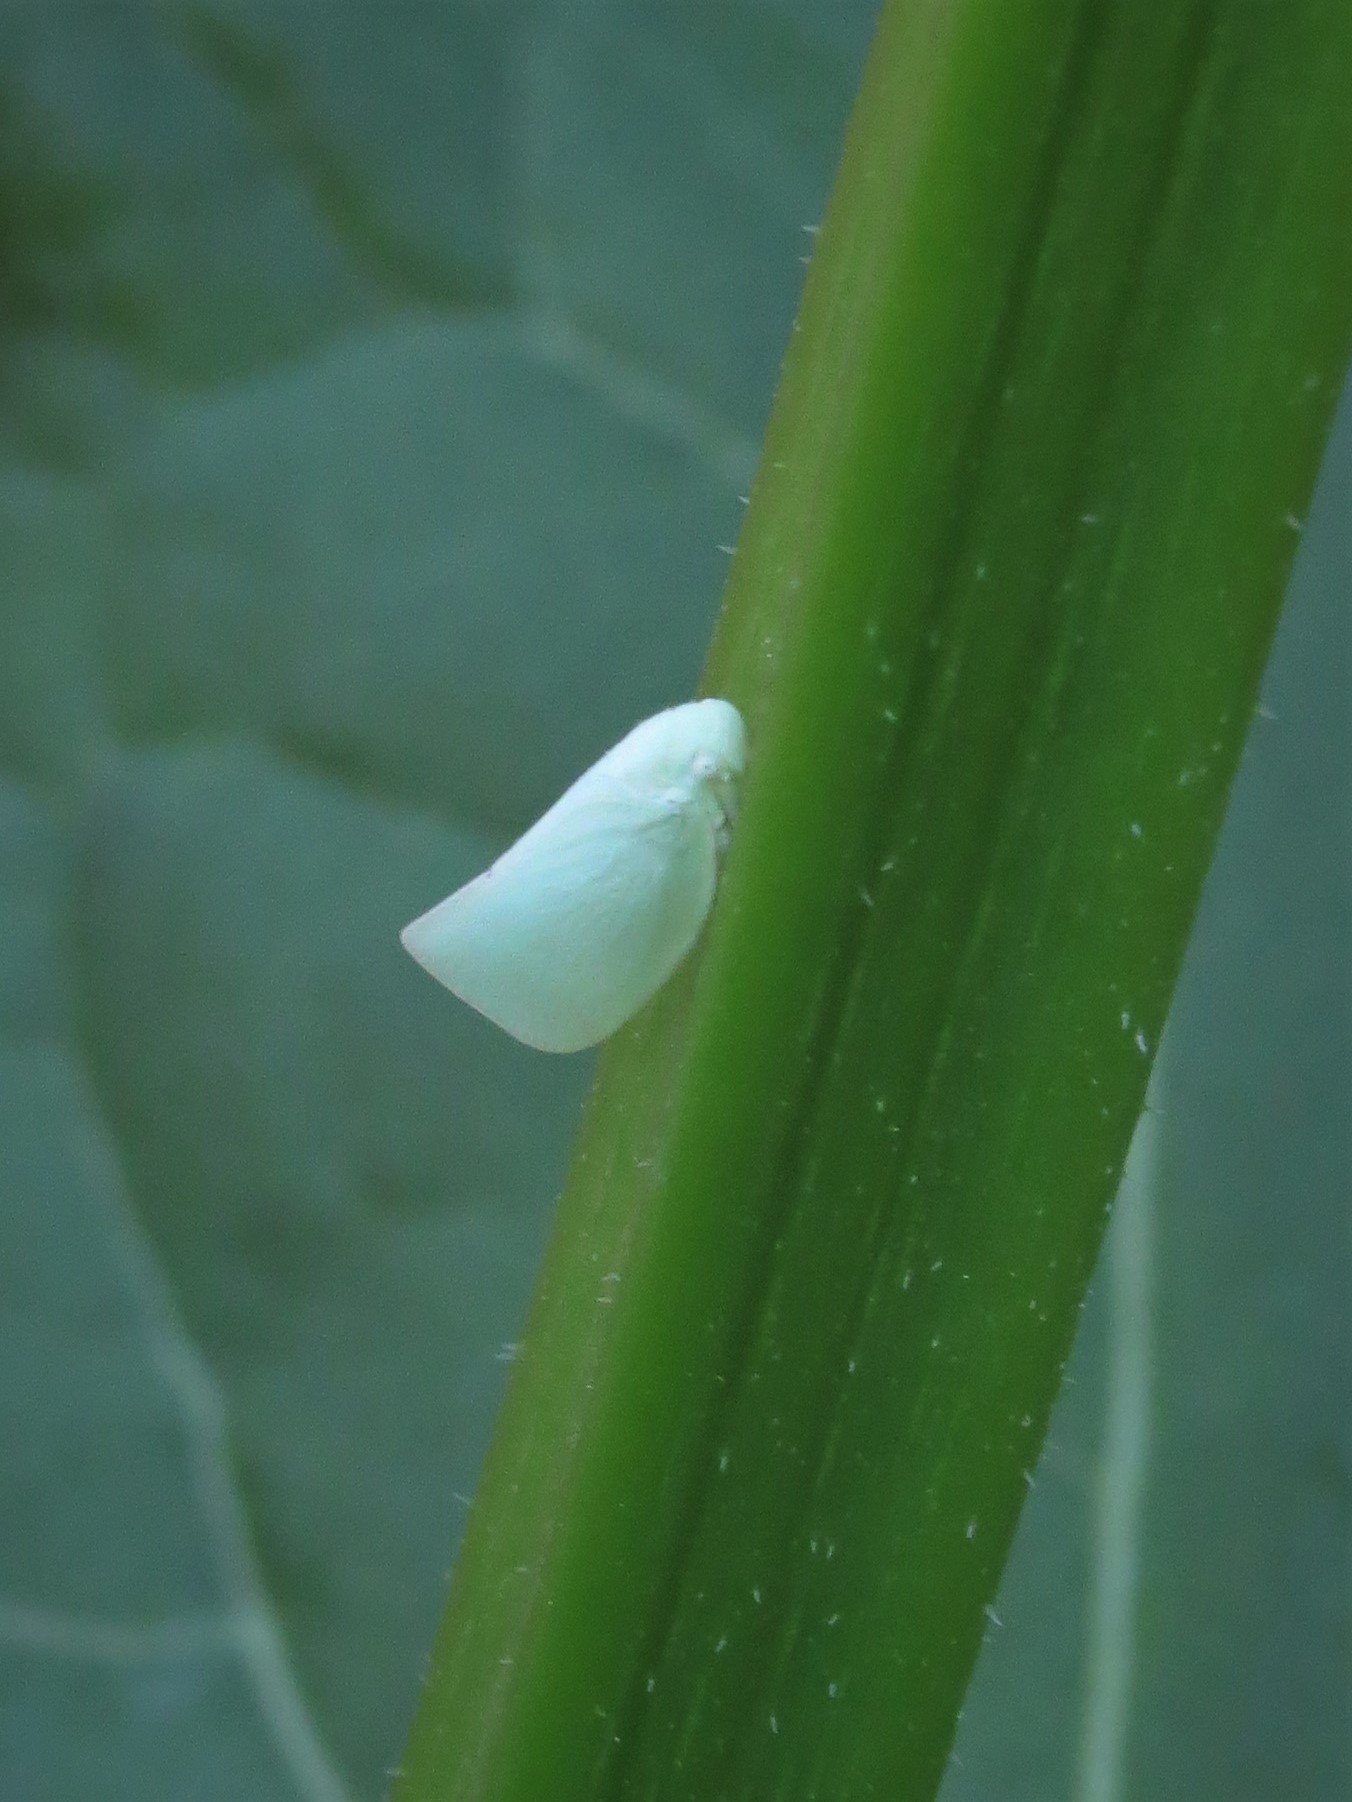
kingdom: Animalia
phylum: Arthropoda
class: Insecta
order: Hemiptera
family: Flatidae
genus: Flatormenis
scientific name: Flatormenis proxima
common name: Northern flatid planthopper
